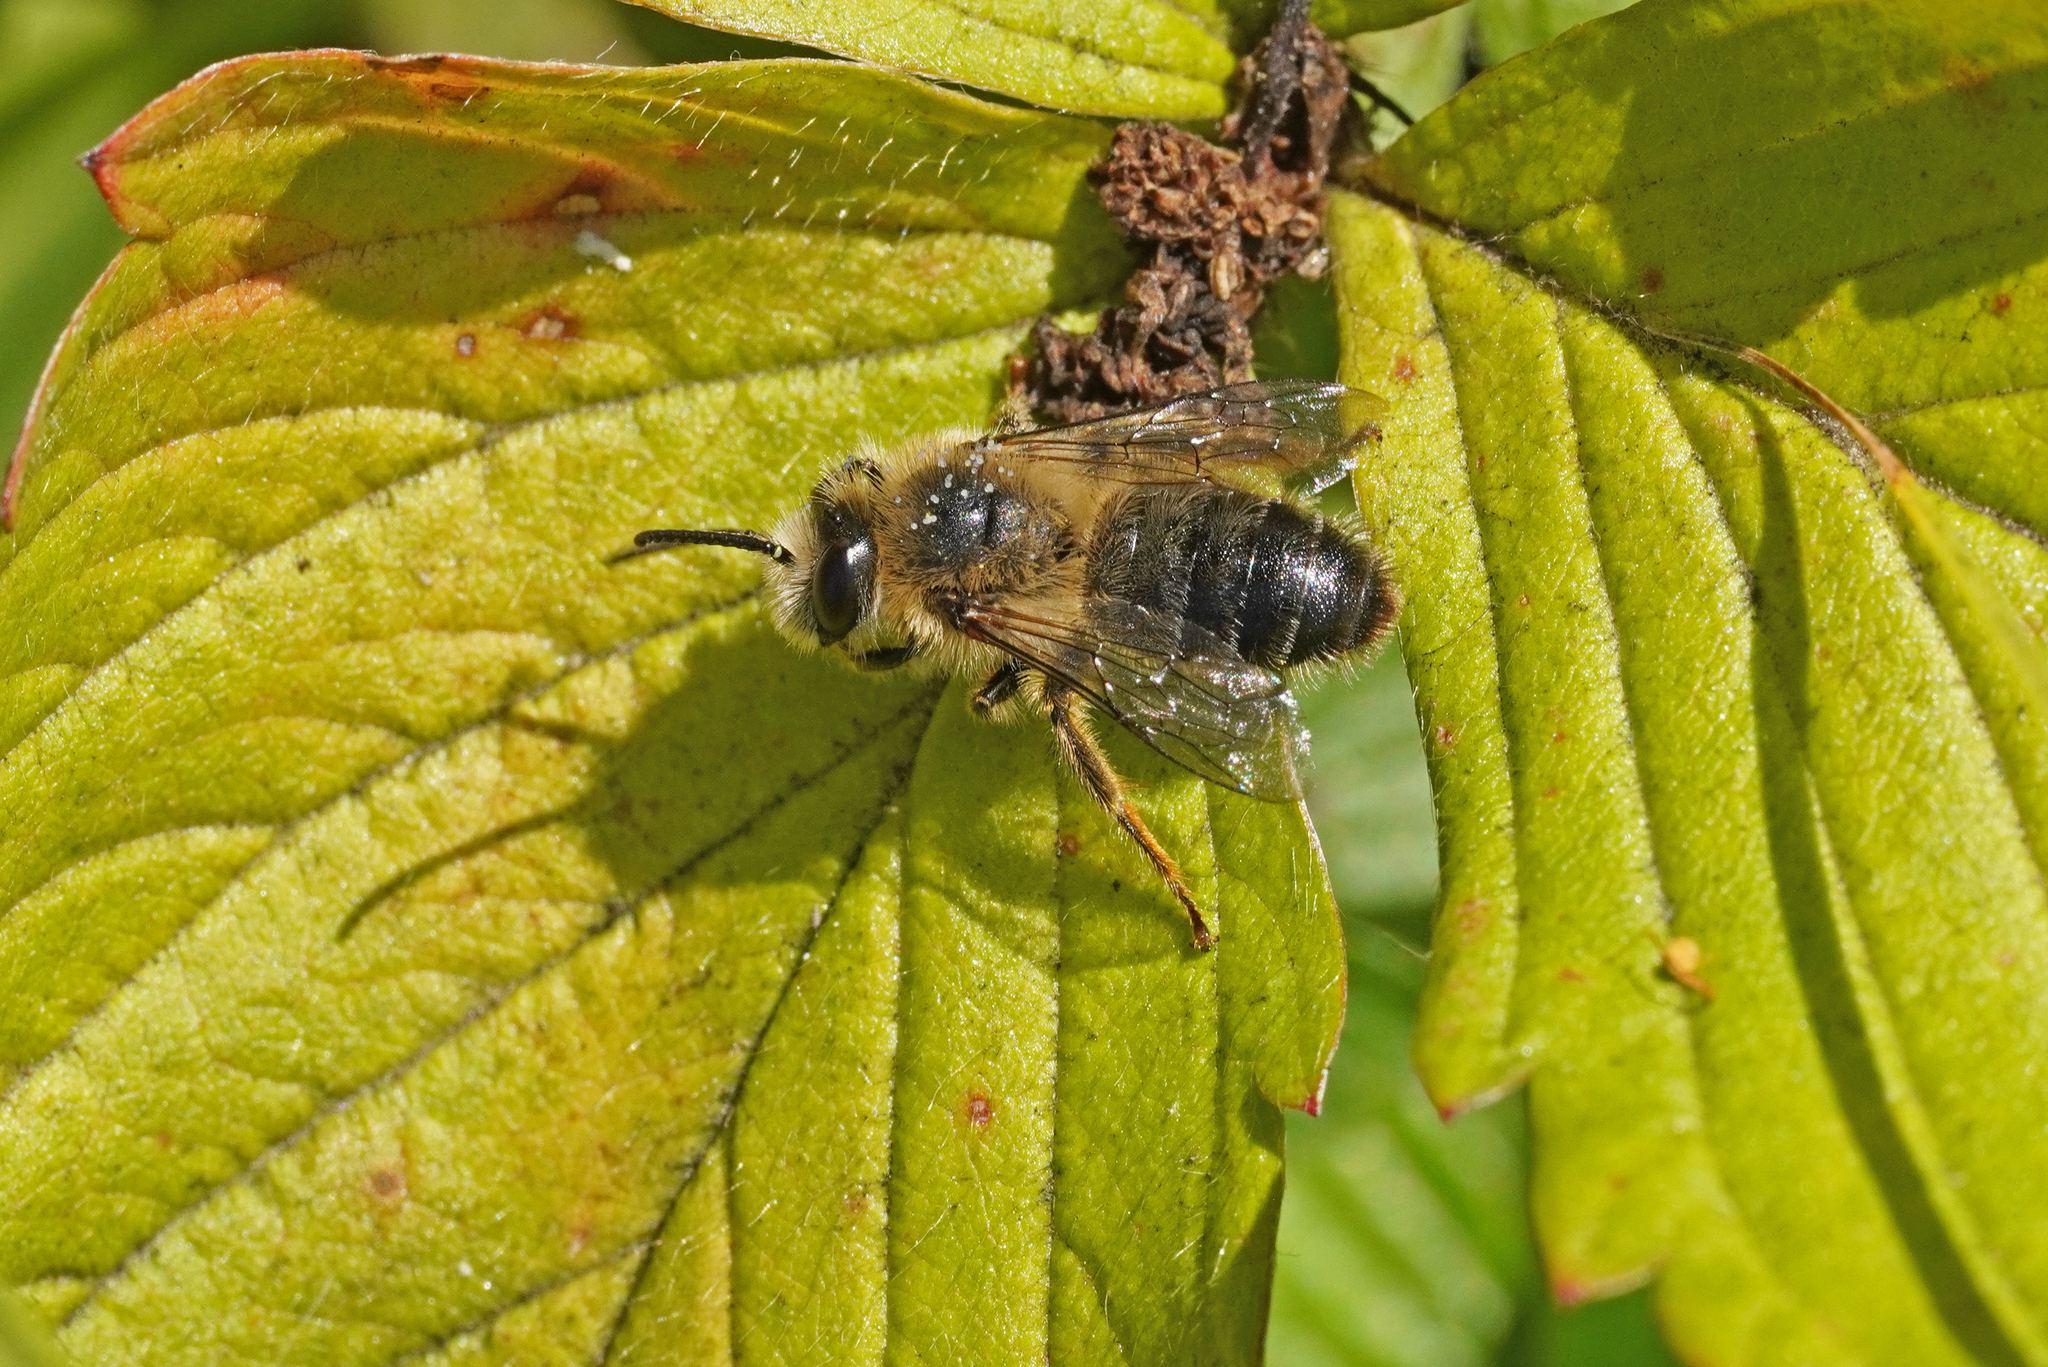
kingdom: Animalia
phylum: Arthropoda
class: Insecta
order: Hymenoptera
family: Melittidae
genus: Melitta
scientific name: Melitta haemorrhoidalis
